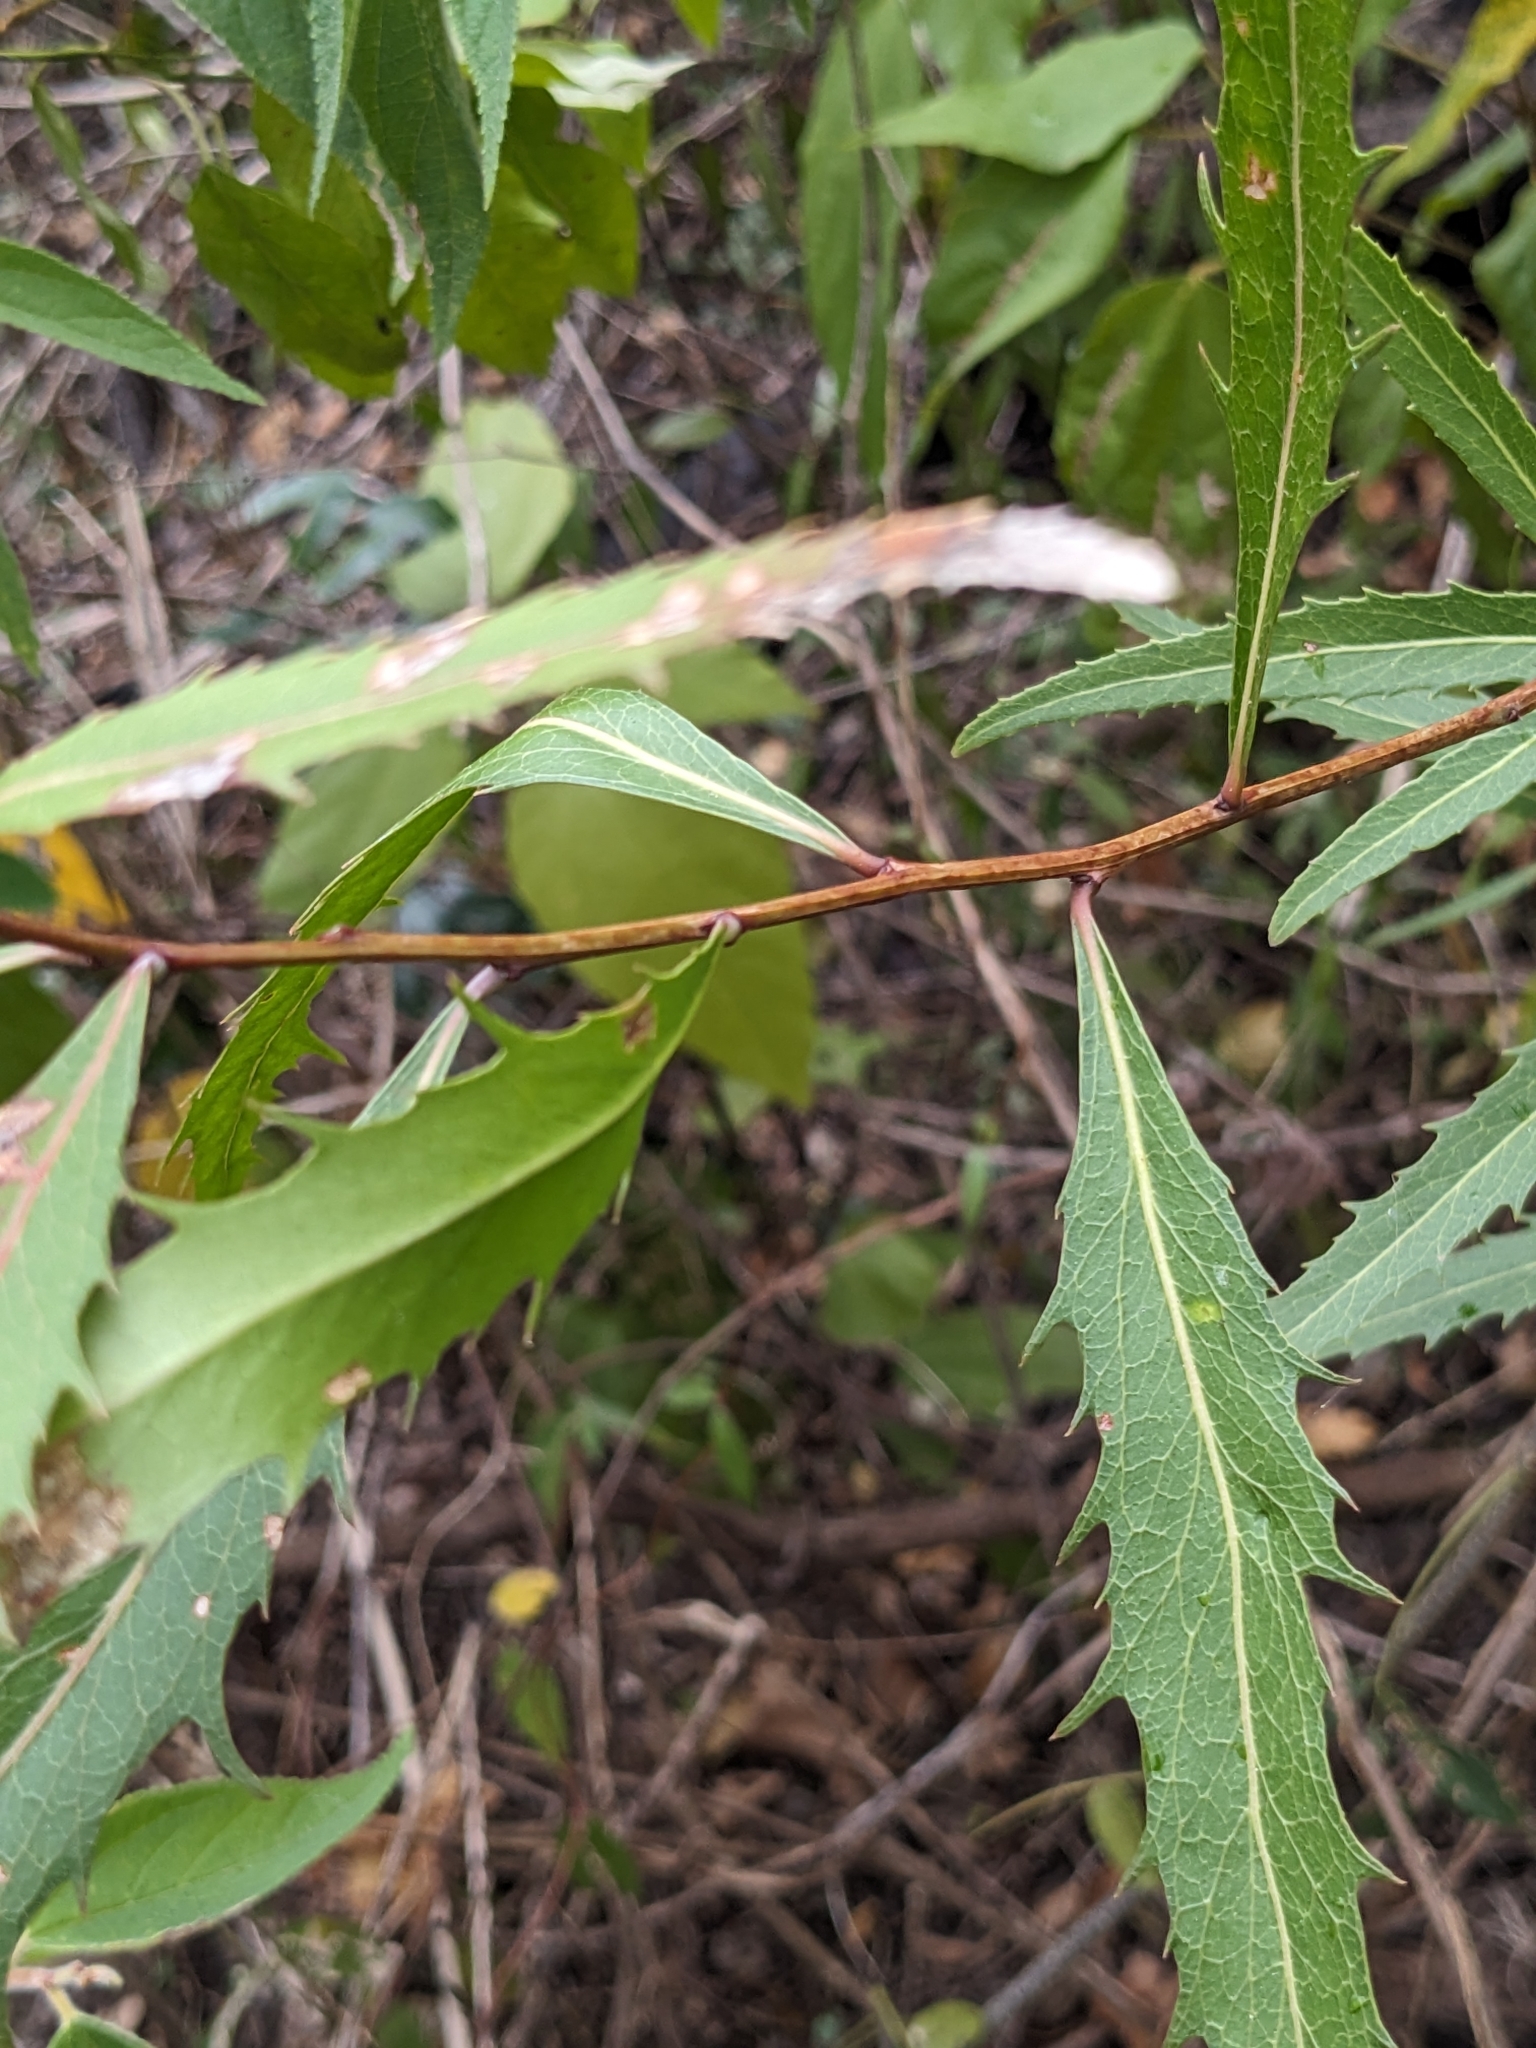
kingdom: Plantae
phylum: Tracheophyta
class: Magnoliopsida
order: Celastrales
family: Celastraceae
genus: Denhamia
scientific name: Denhamia pittosporoides
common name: Orange-boxwood
